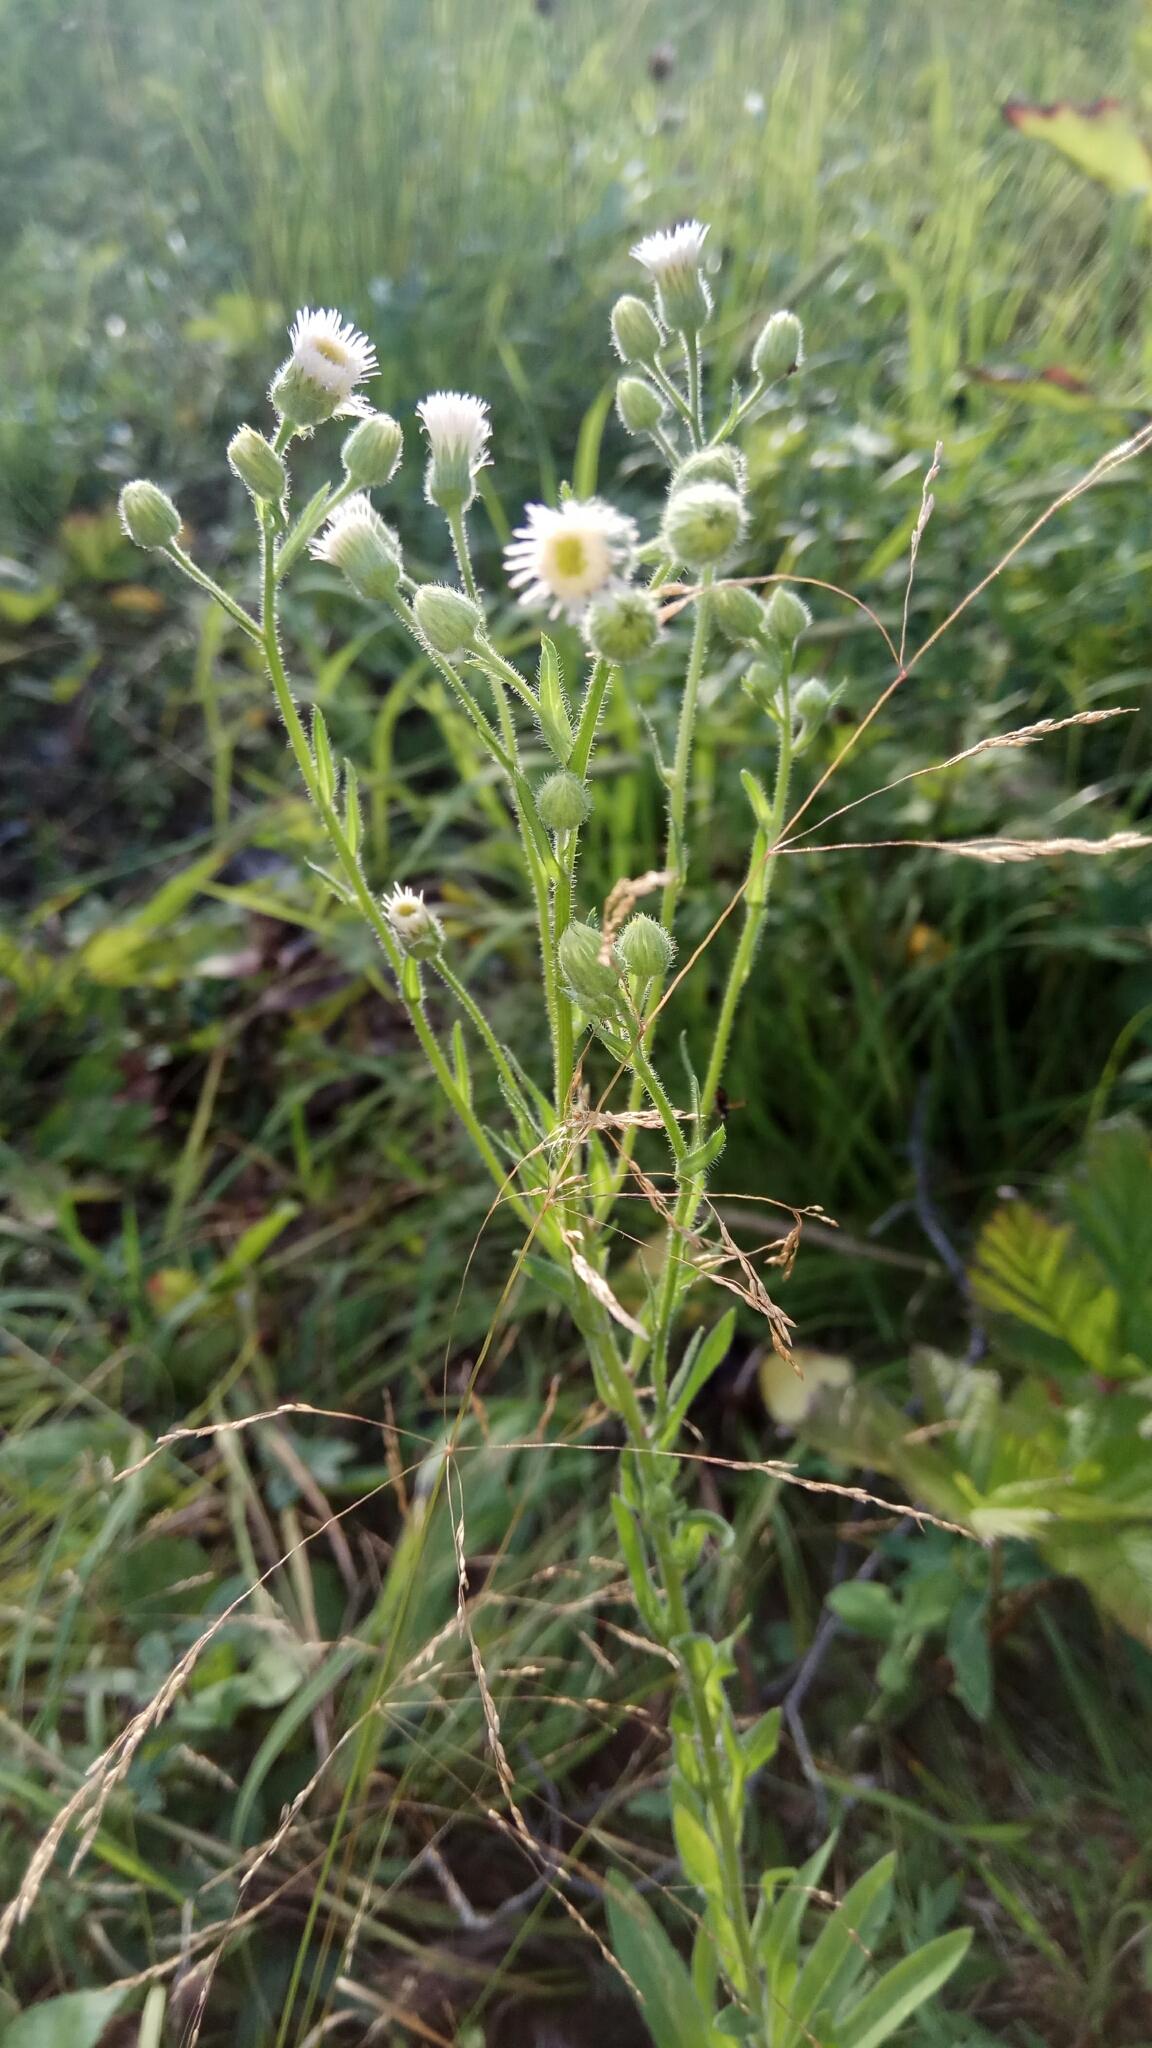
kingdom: Plantae
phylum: Tracheophyta
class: Magnoliopsida
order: Asterales
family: Asteraceae
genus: Erigeron
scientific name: Erigeron acris
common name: Blue fleabane
